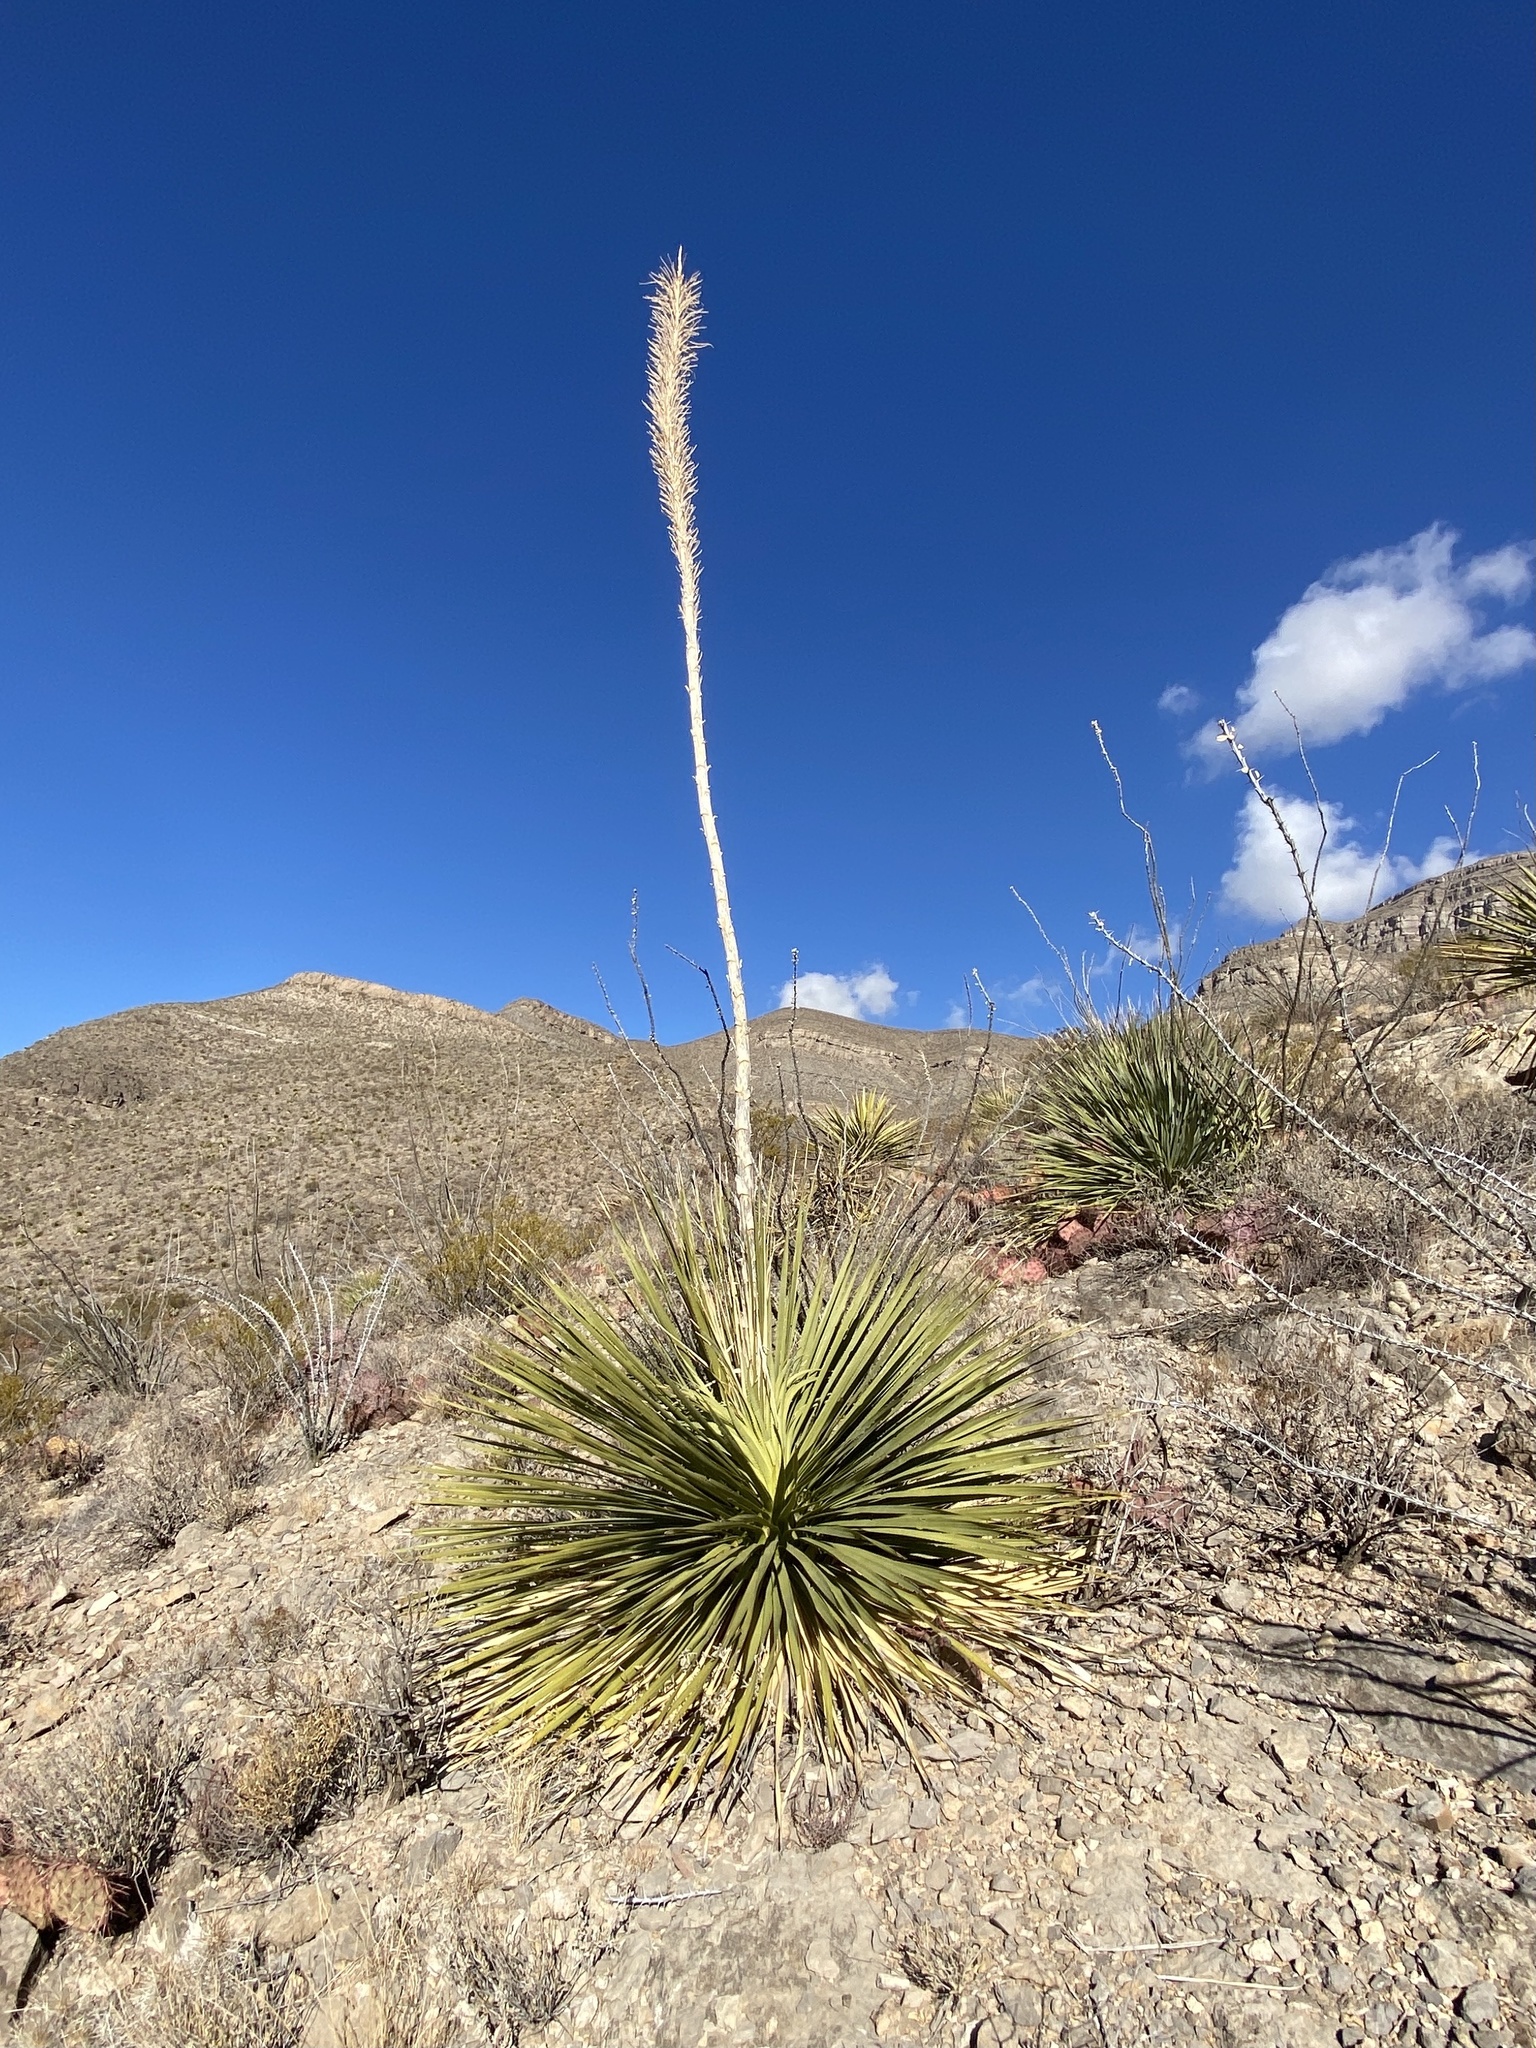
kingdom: Plantae
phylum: Tracheophyta
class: Liliopsida
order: Asparagales
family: Asparagaceae
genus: Dasylirion
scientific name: Dasylirion wheeleri
